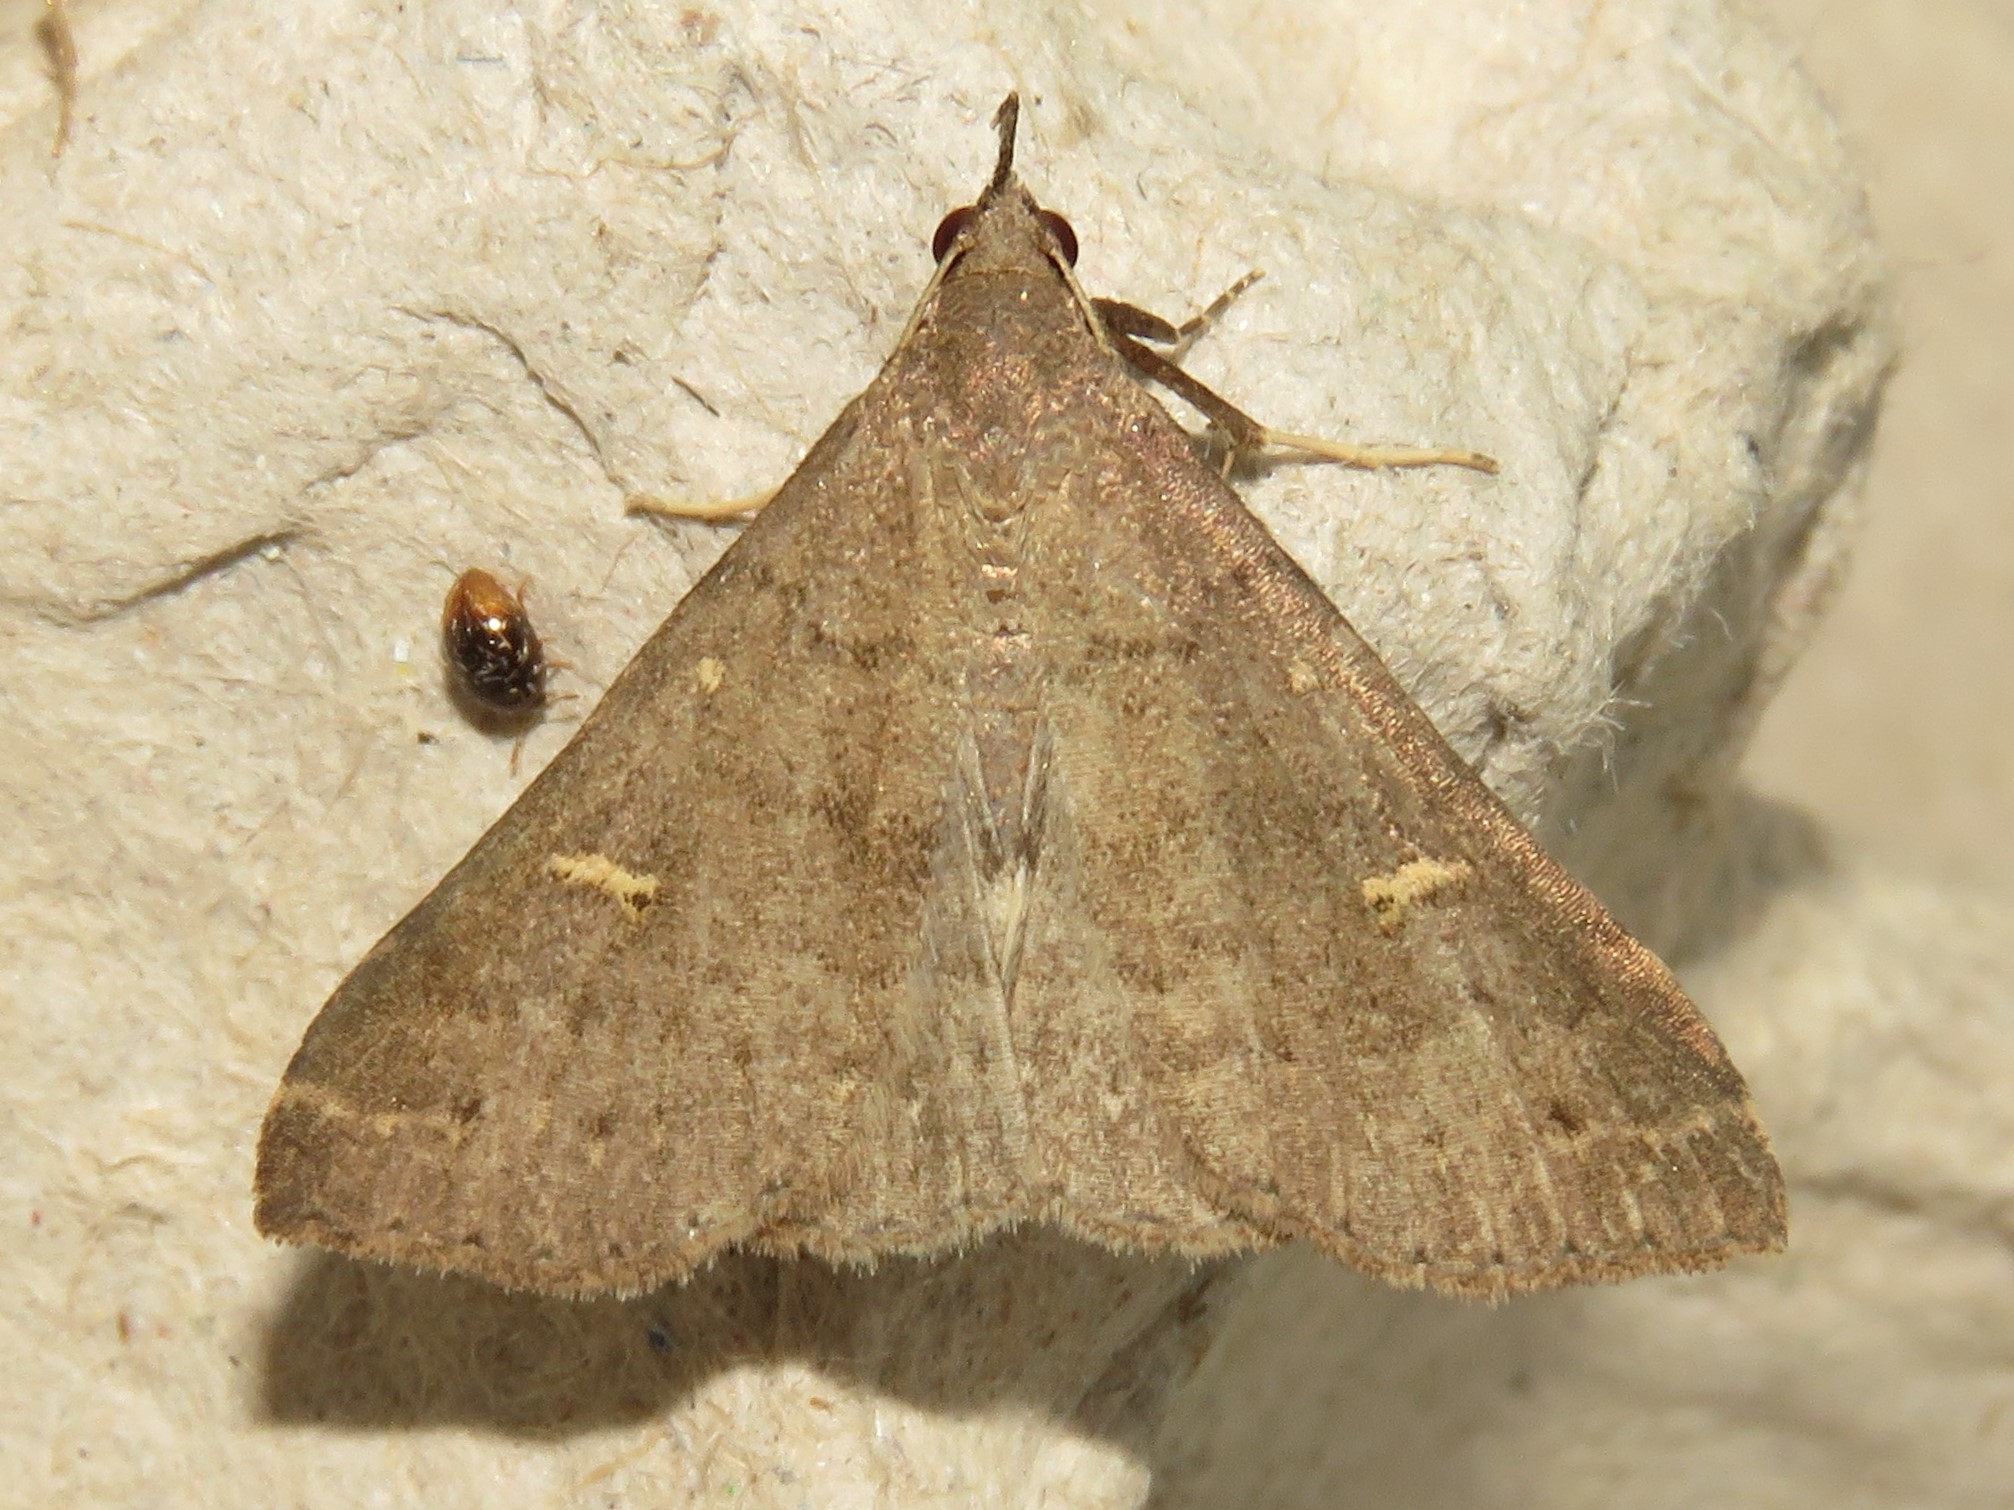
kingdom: Animalia
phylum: Arthropoda
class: Insecta
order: Lepidoptera
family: Erebidae
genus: Renia
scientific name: Renia adspergillus
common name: Speckled renia moth
